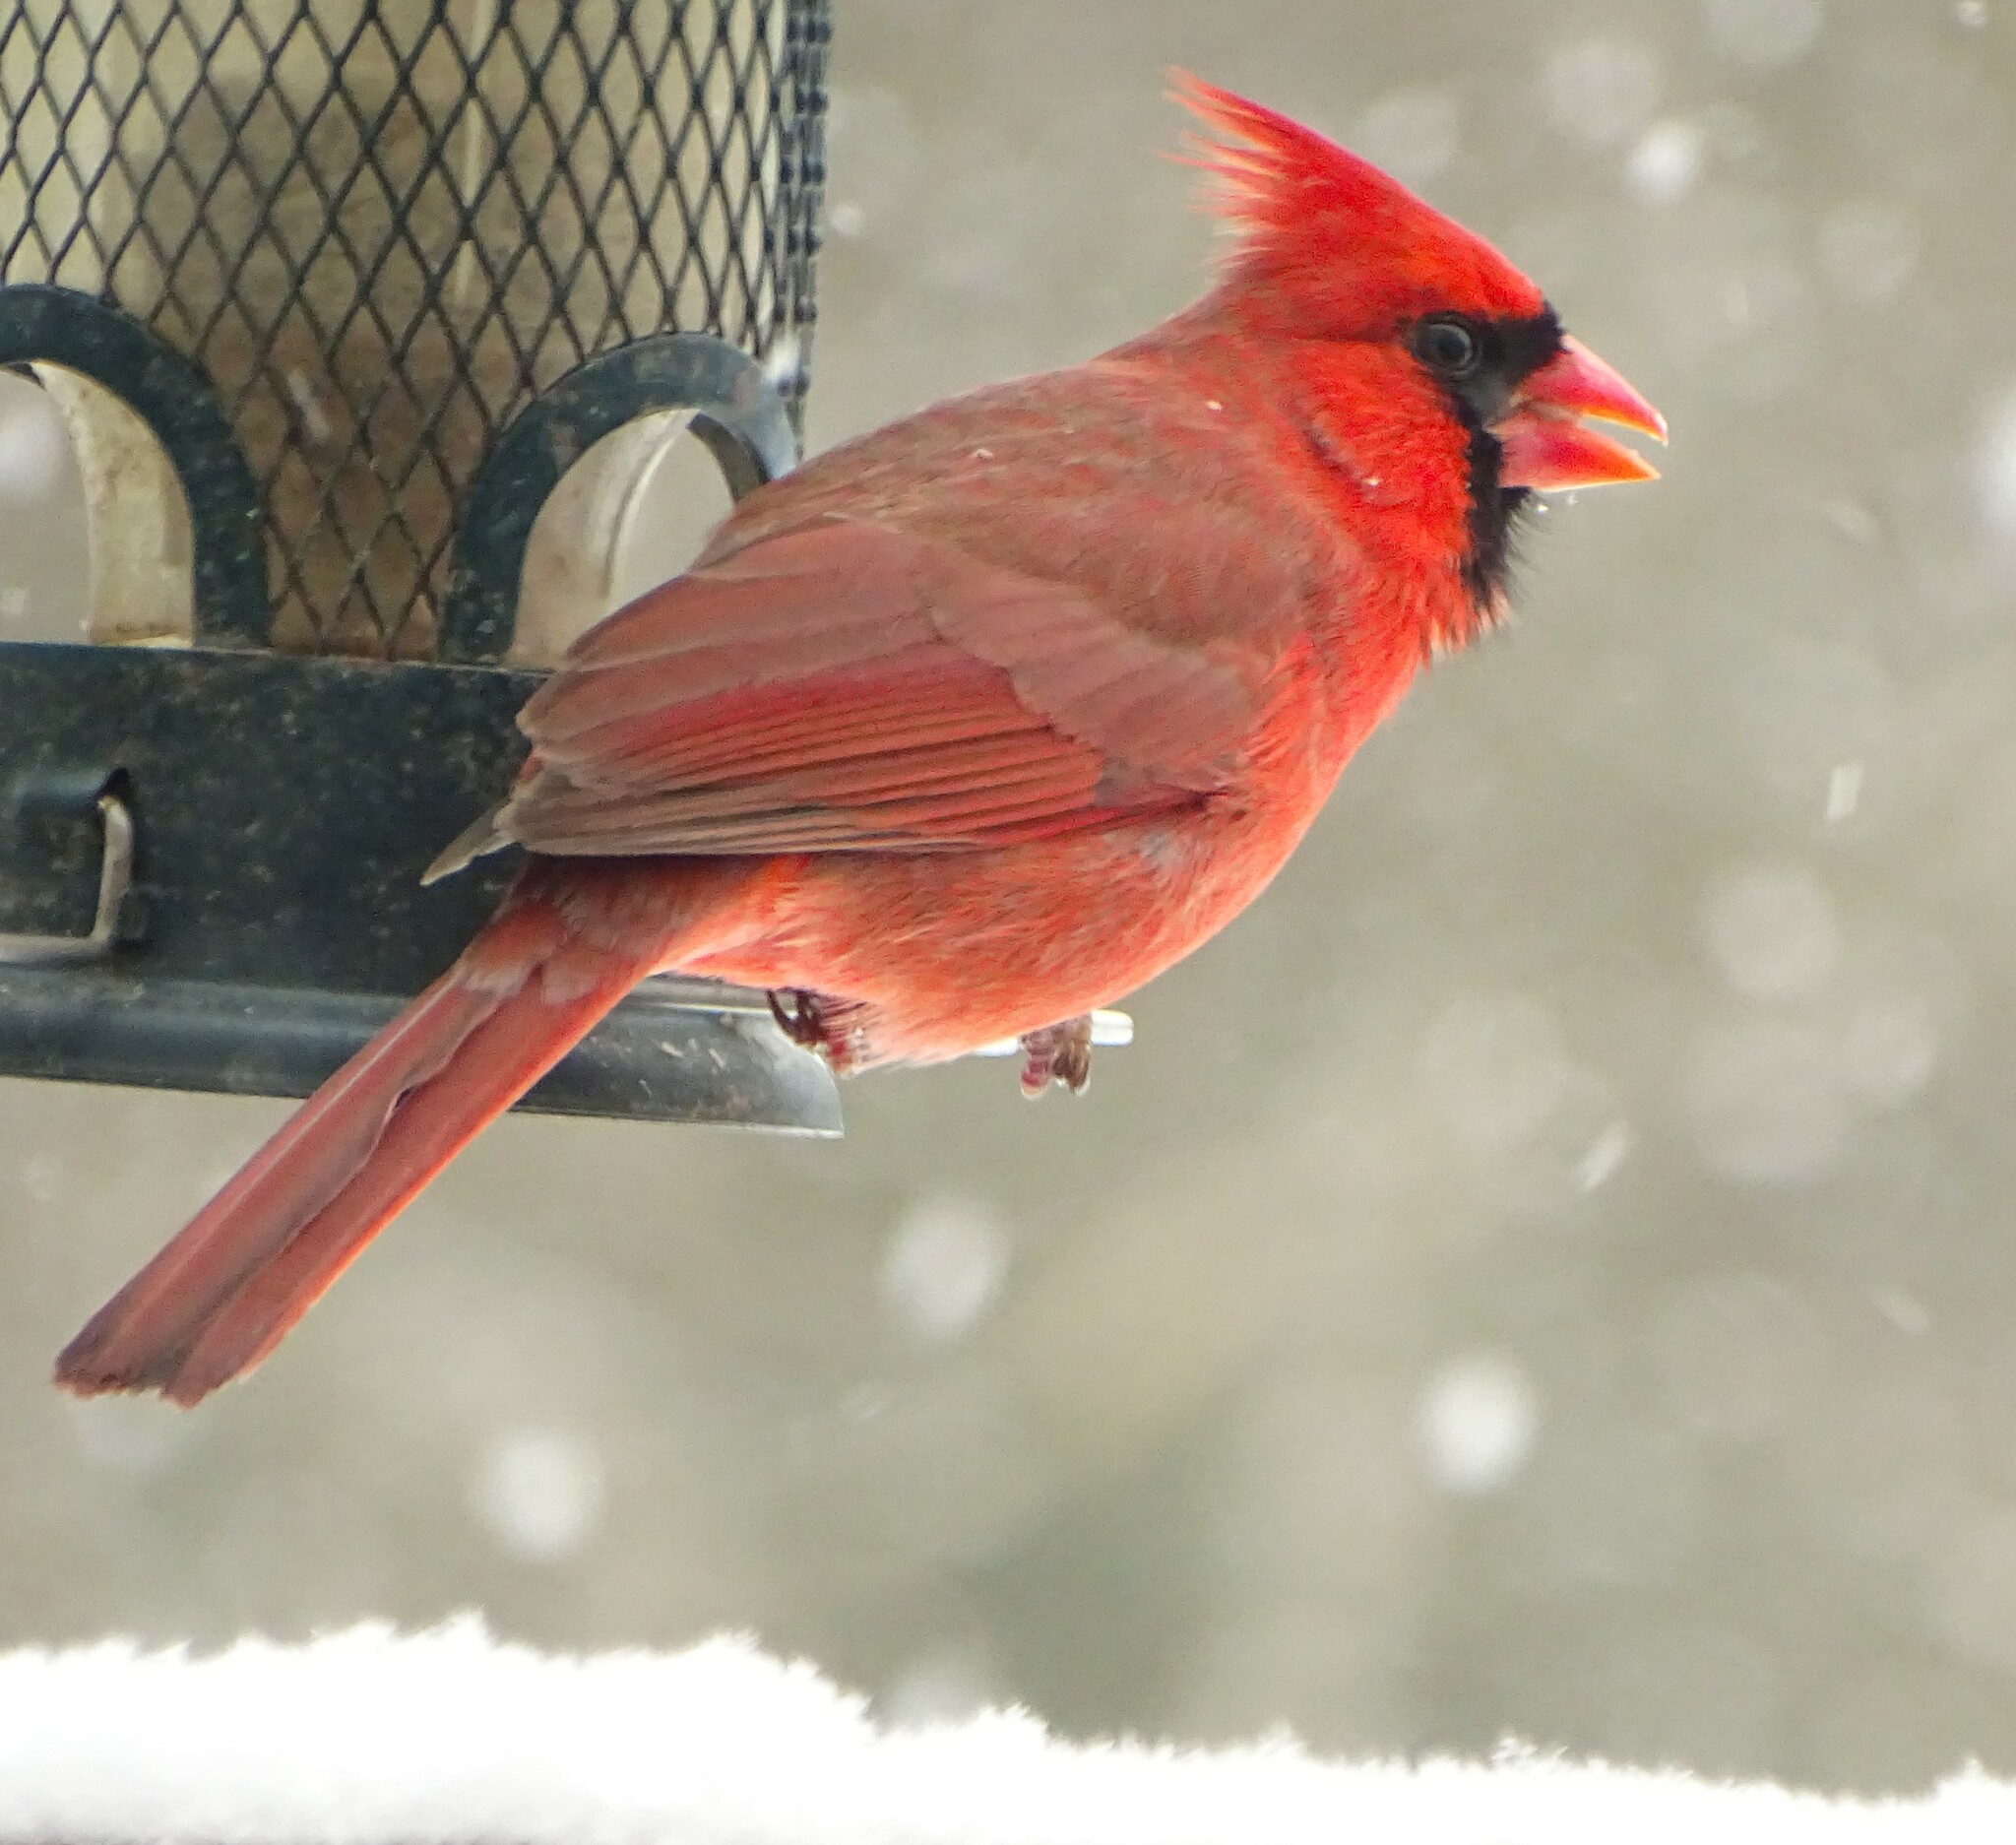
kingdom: Animalia
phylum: Chordata
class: Aves
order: Passeriformes
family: Cardinalidae
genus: Cardinalis
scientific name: Cardinalis cardinalis
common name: Northern cardinal
